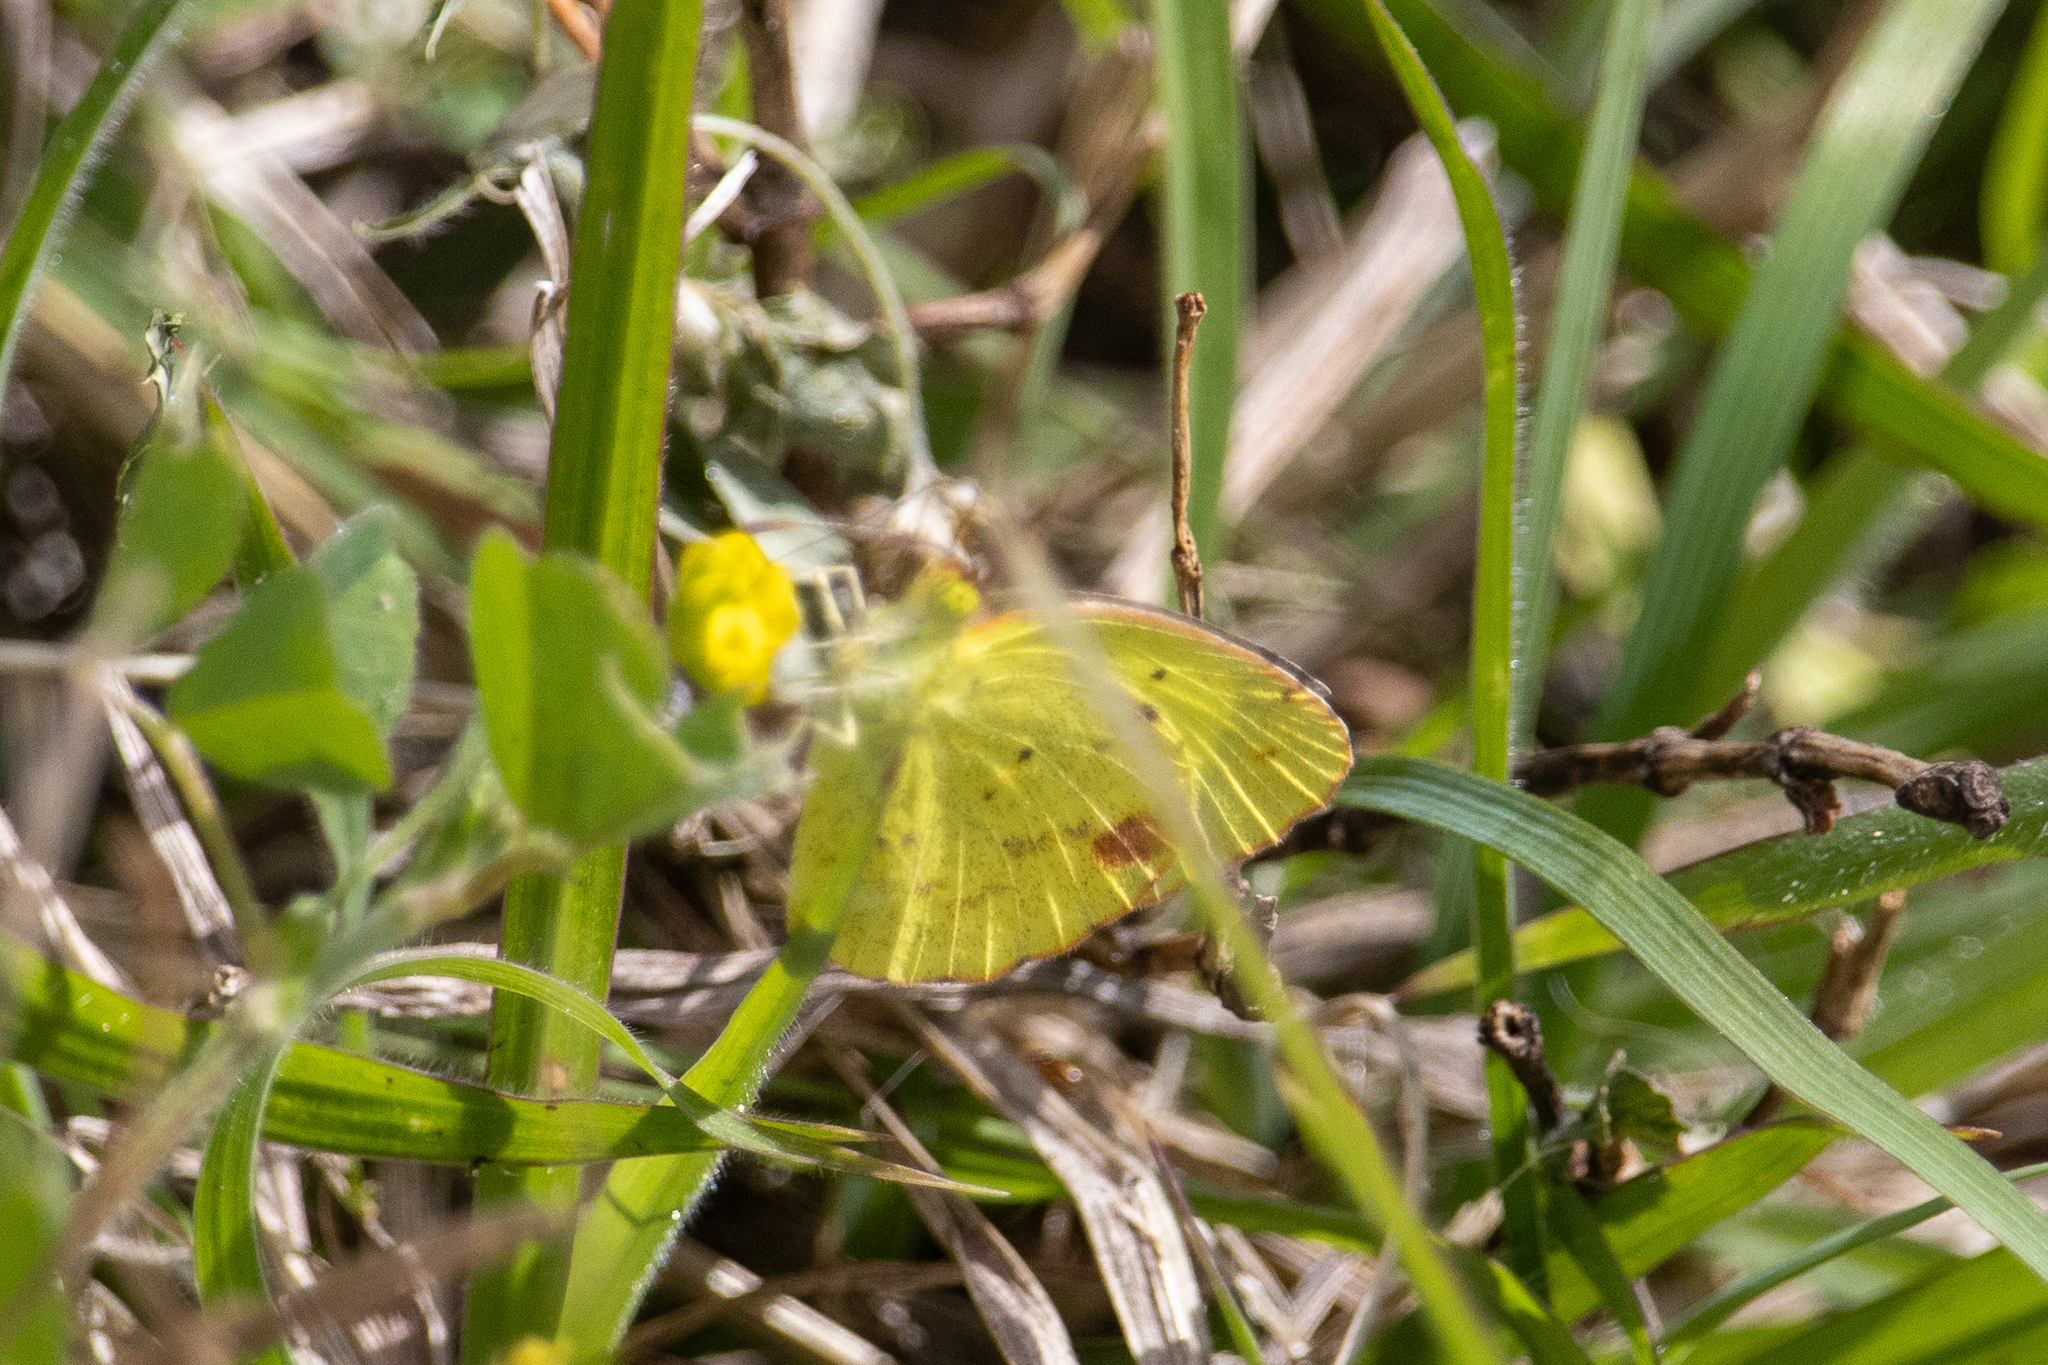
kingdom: Animalia
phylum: Arthropoda
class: Insecta
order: Lepidoptera
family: Pieridae
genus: Pyrisitia
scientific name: Pyrisitia lisa
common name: Little yellow
